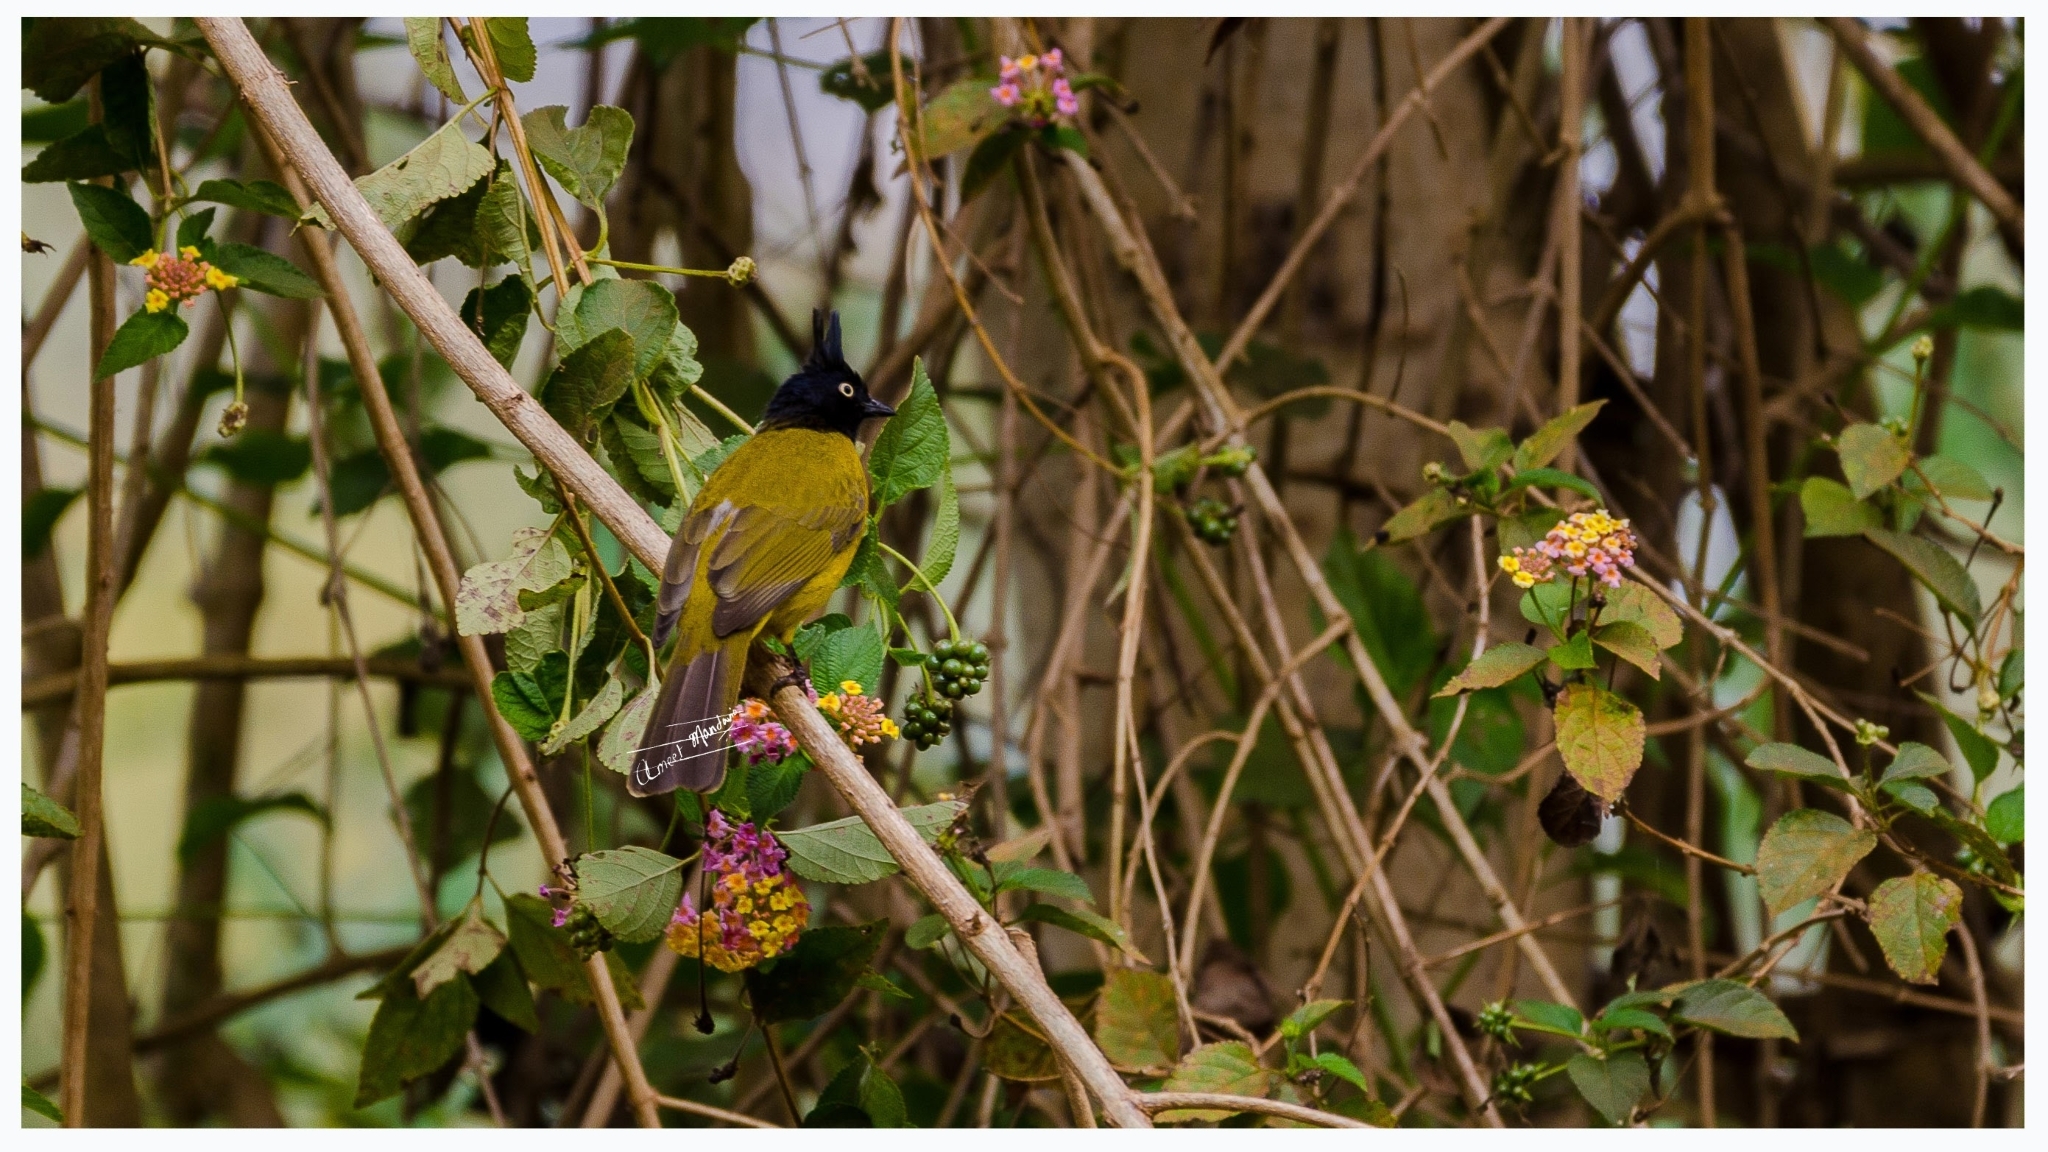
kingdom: Animalia
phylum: Chordata
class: Aves
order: Passeriformes
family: Pycnonotidae
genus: Pycnonotus
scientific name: Pycnonotus flaviventris
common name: Black-crested bulbul
